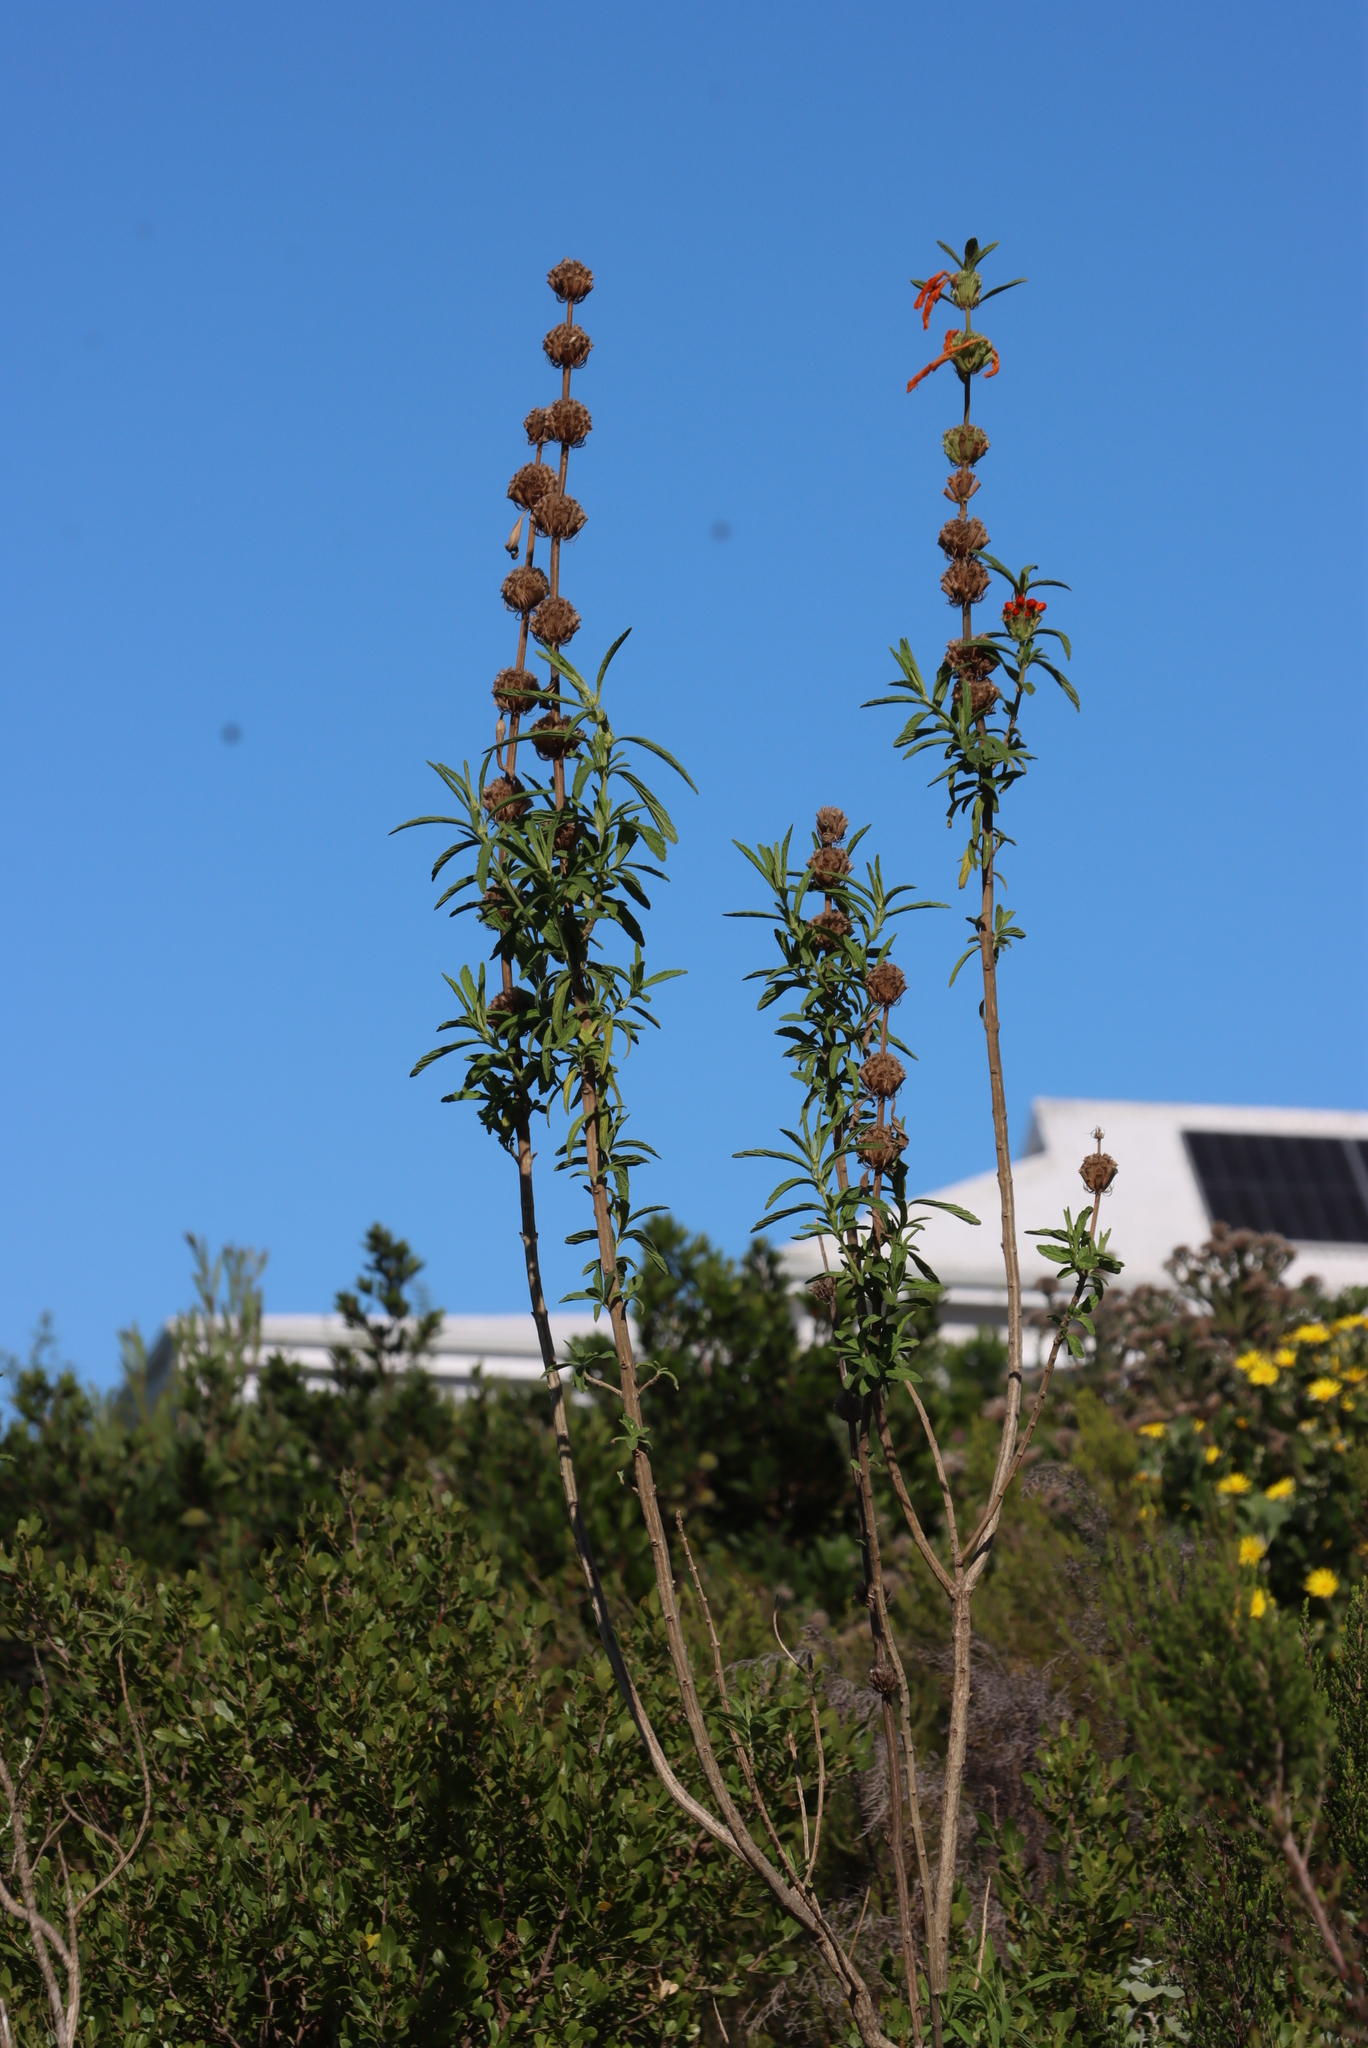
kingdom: Plantae
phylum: Tracheophyta
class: Magnoliopsida
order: Lamiales
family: Lamiaceae
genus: Leonotis
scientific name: Leonotis leonurus
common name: Lion's ear
